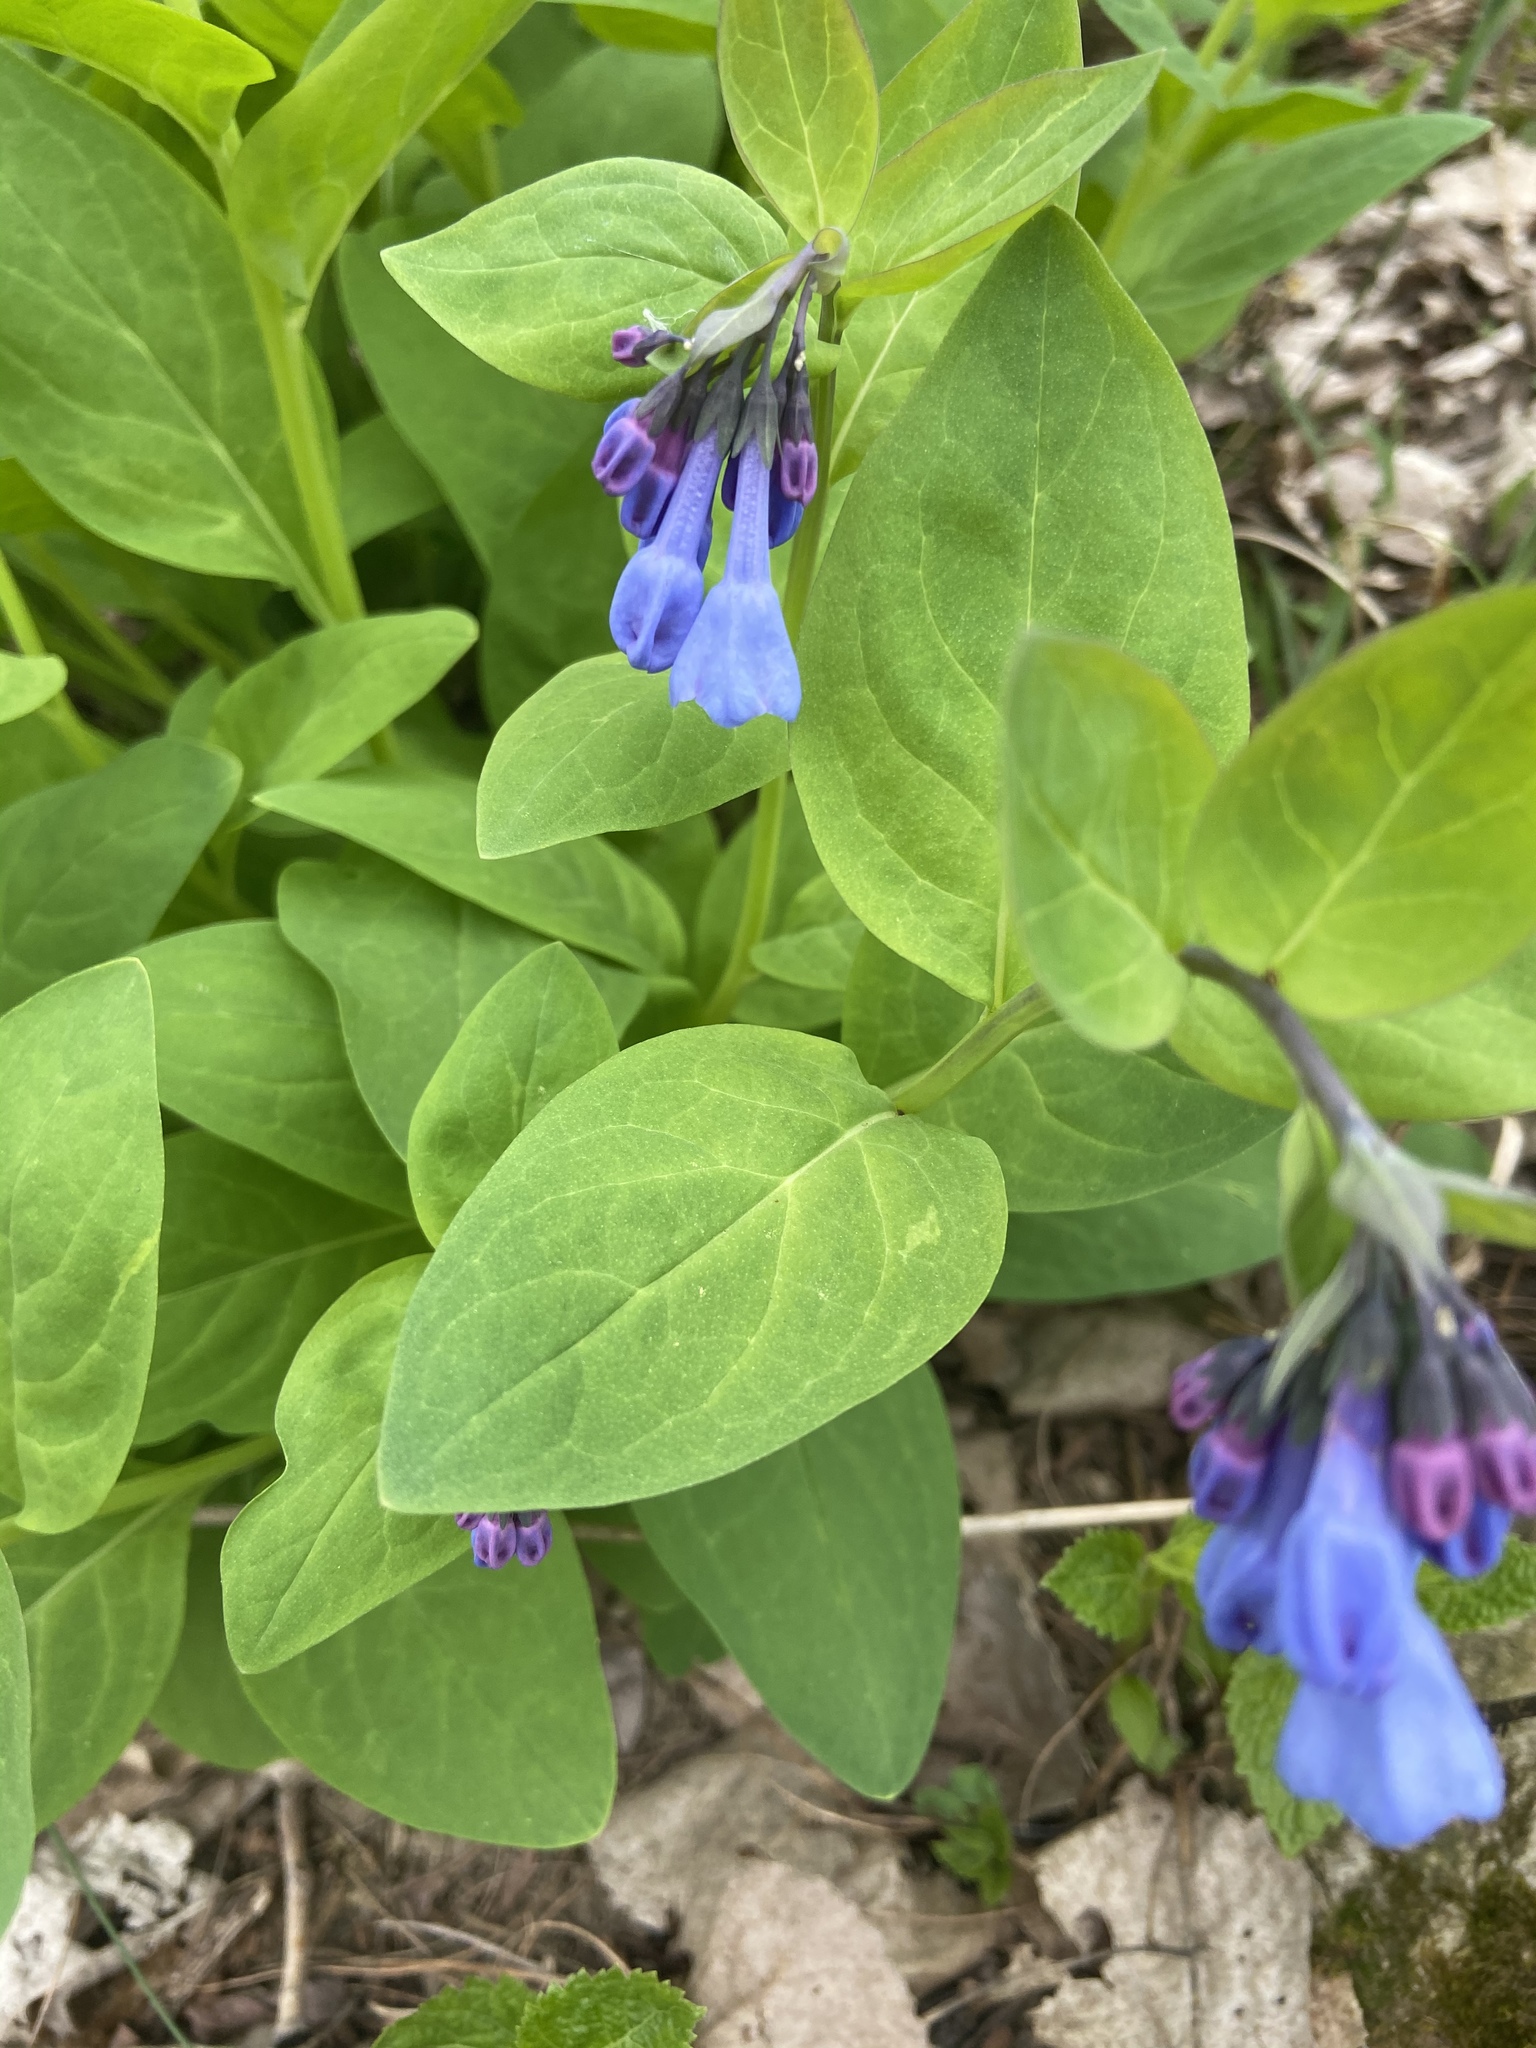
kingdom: Plantae
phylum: Tracheophyta
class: Magnoliopsida
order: Boraginales
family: Boraginaceae
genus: Mertensia
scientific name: Mertensia virginica
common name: Virginia bluebells
